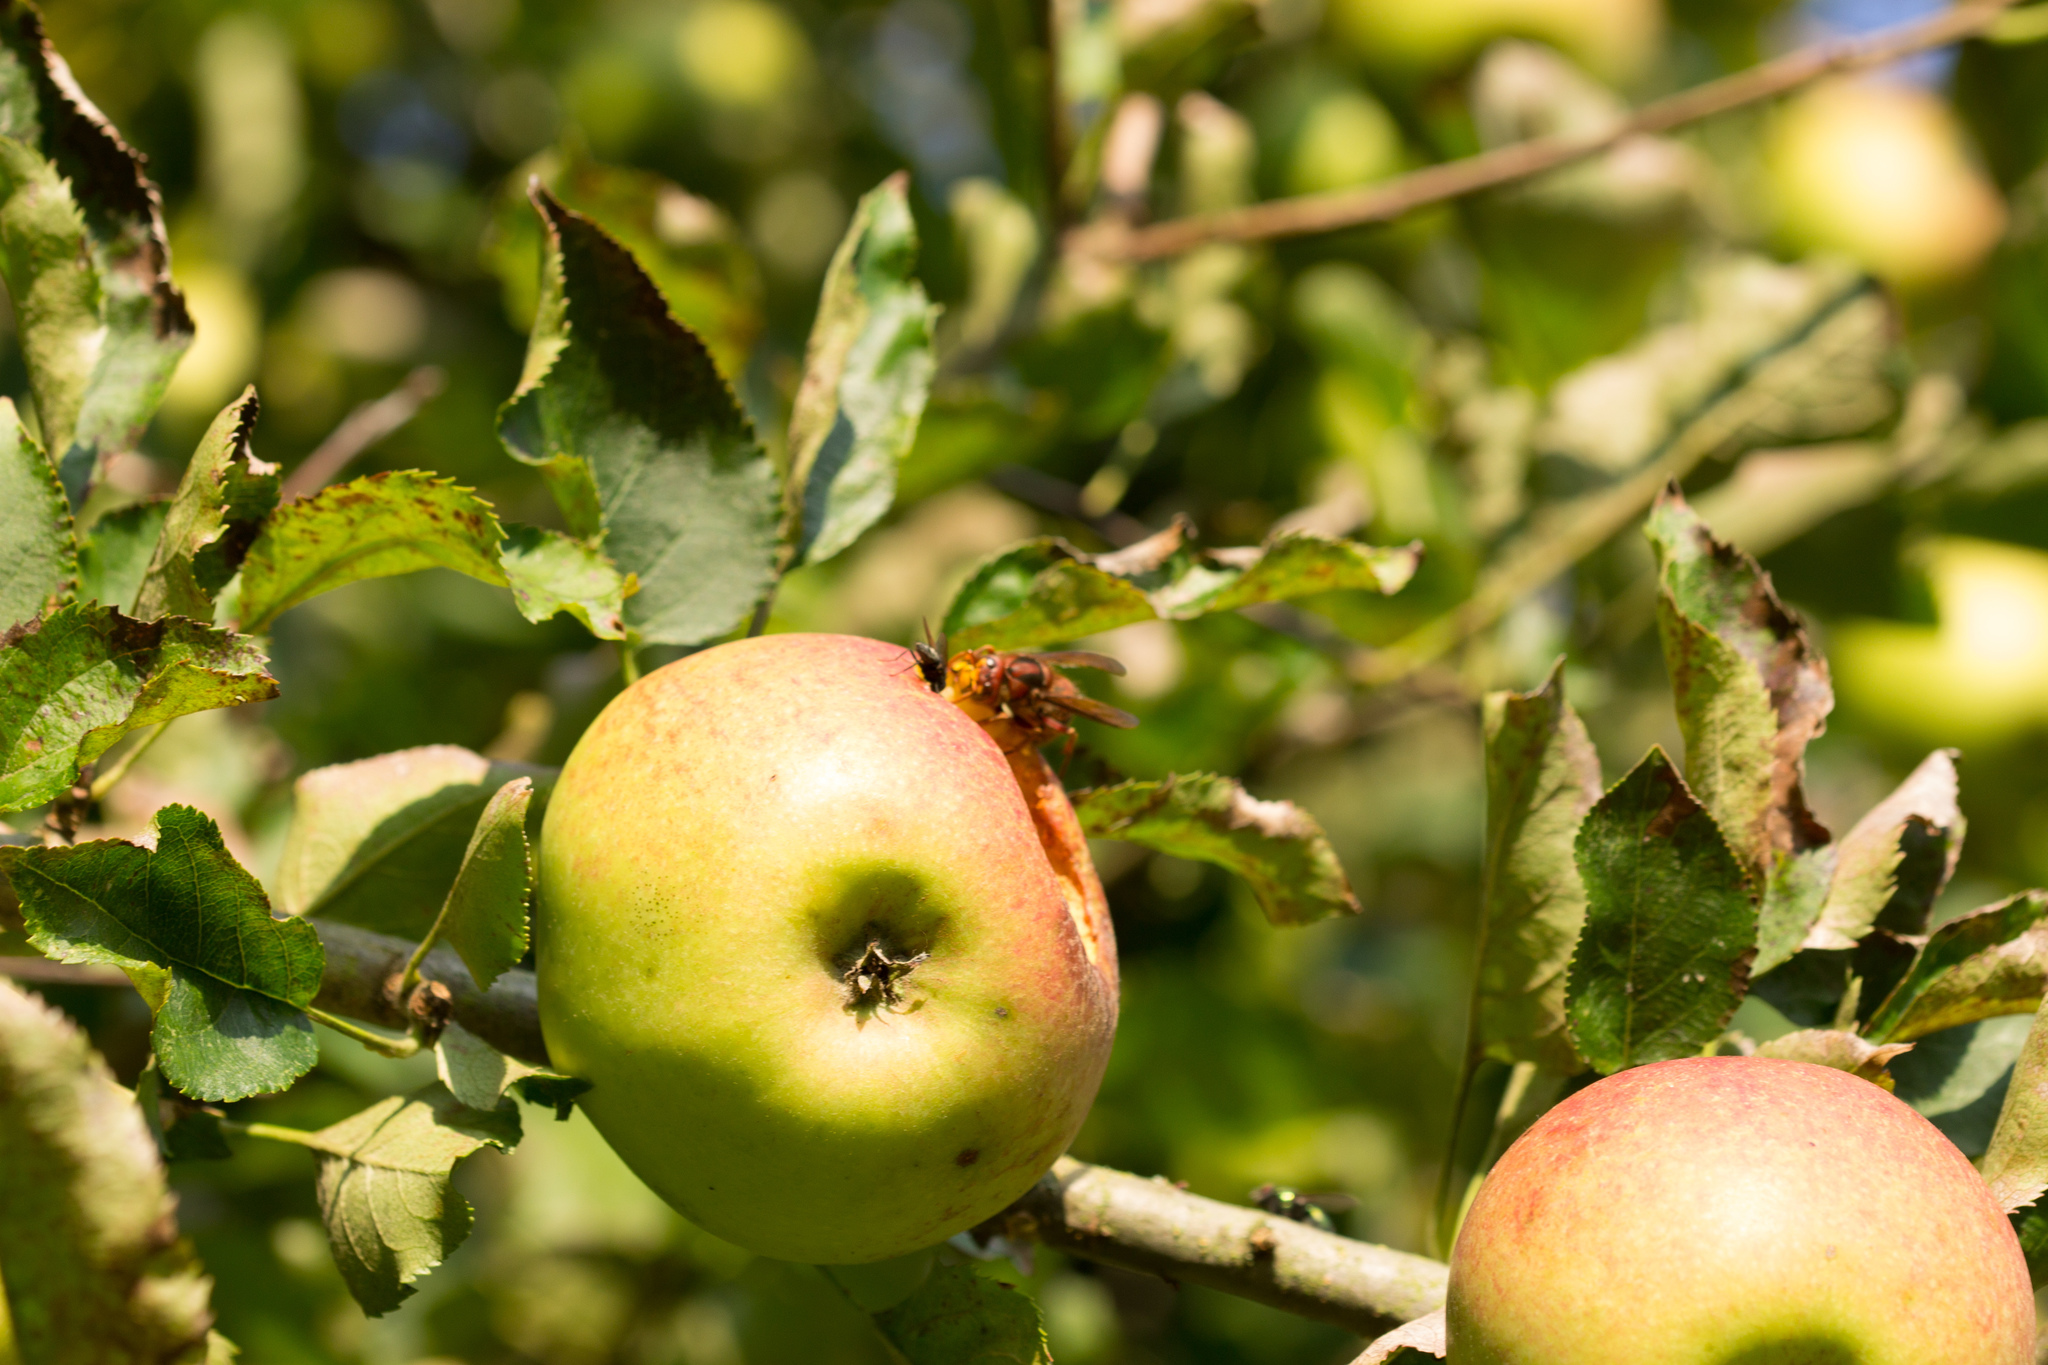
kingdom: Animalia
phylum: Arthropoda
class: Insecta
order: Hymenoptera
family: Vespidae
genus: Vespa
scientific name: Vespa crabro
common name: Hornet
